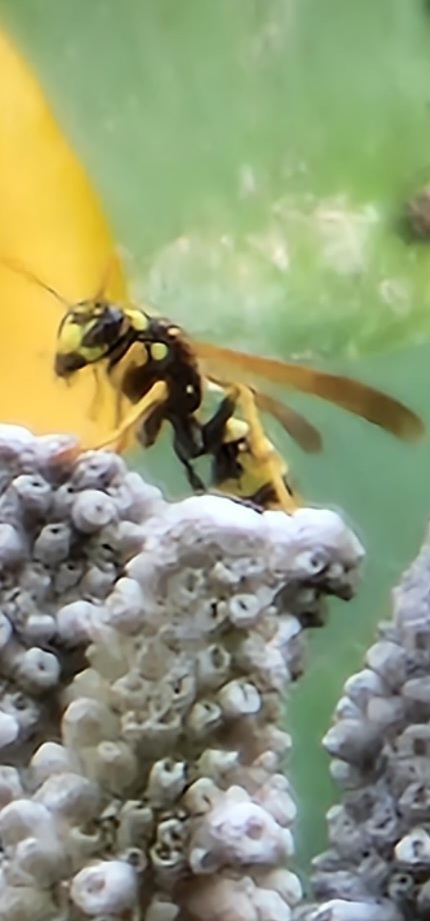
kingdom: Animalia
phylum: Arthropoda
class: Insecta
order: Hymenoptera
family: Eumenidae
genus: Polistes
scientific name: Polistes dominula
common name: Paper wasp
